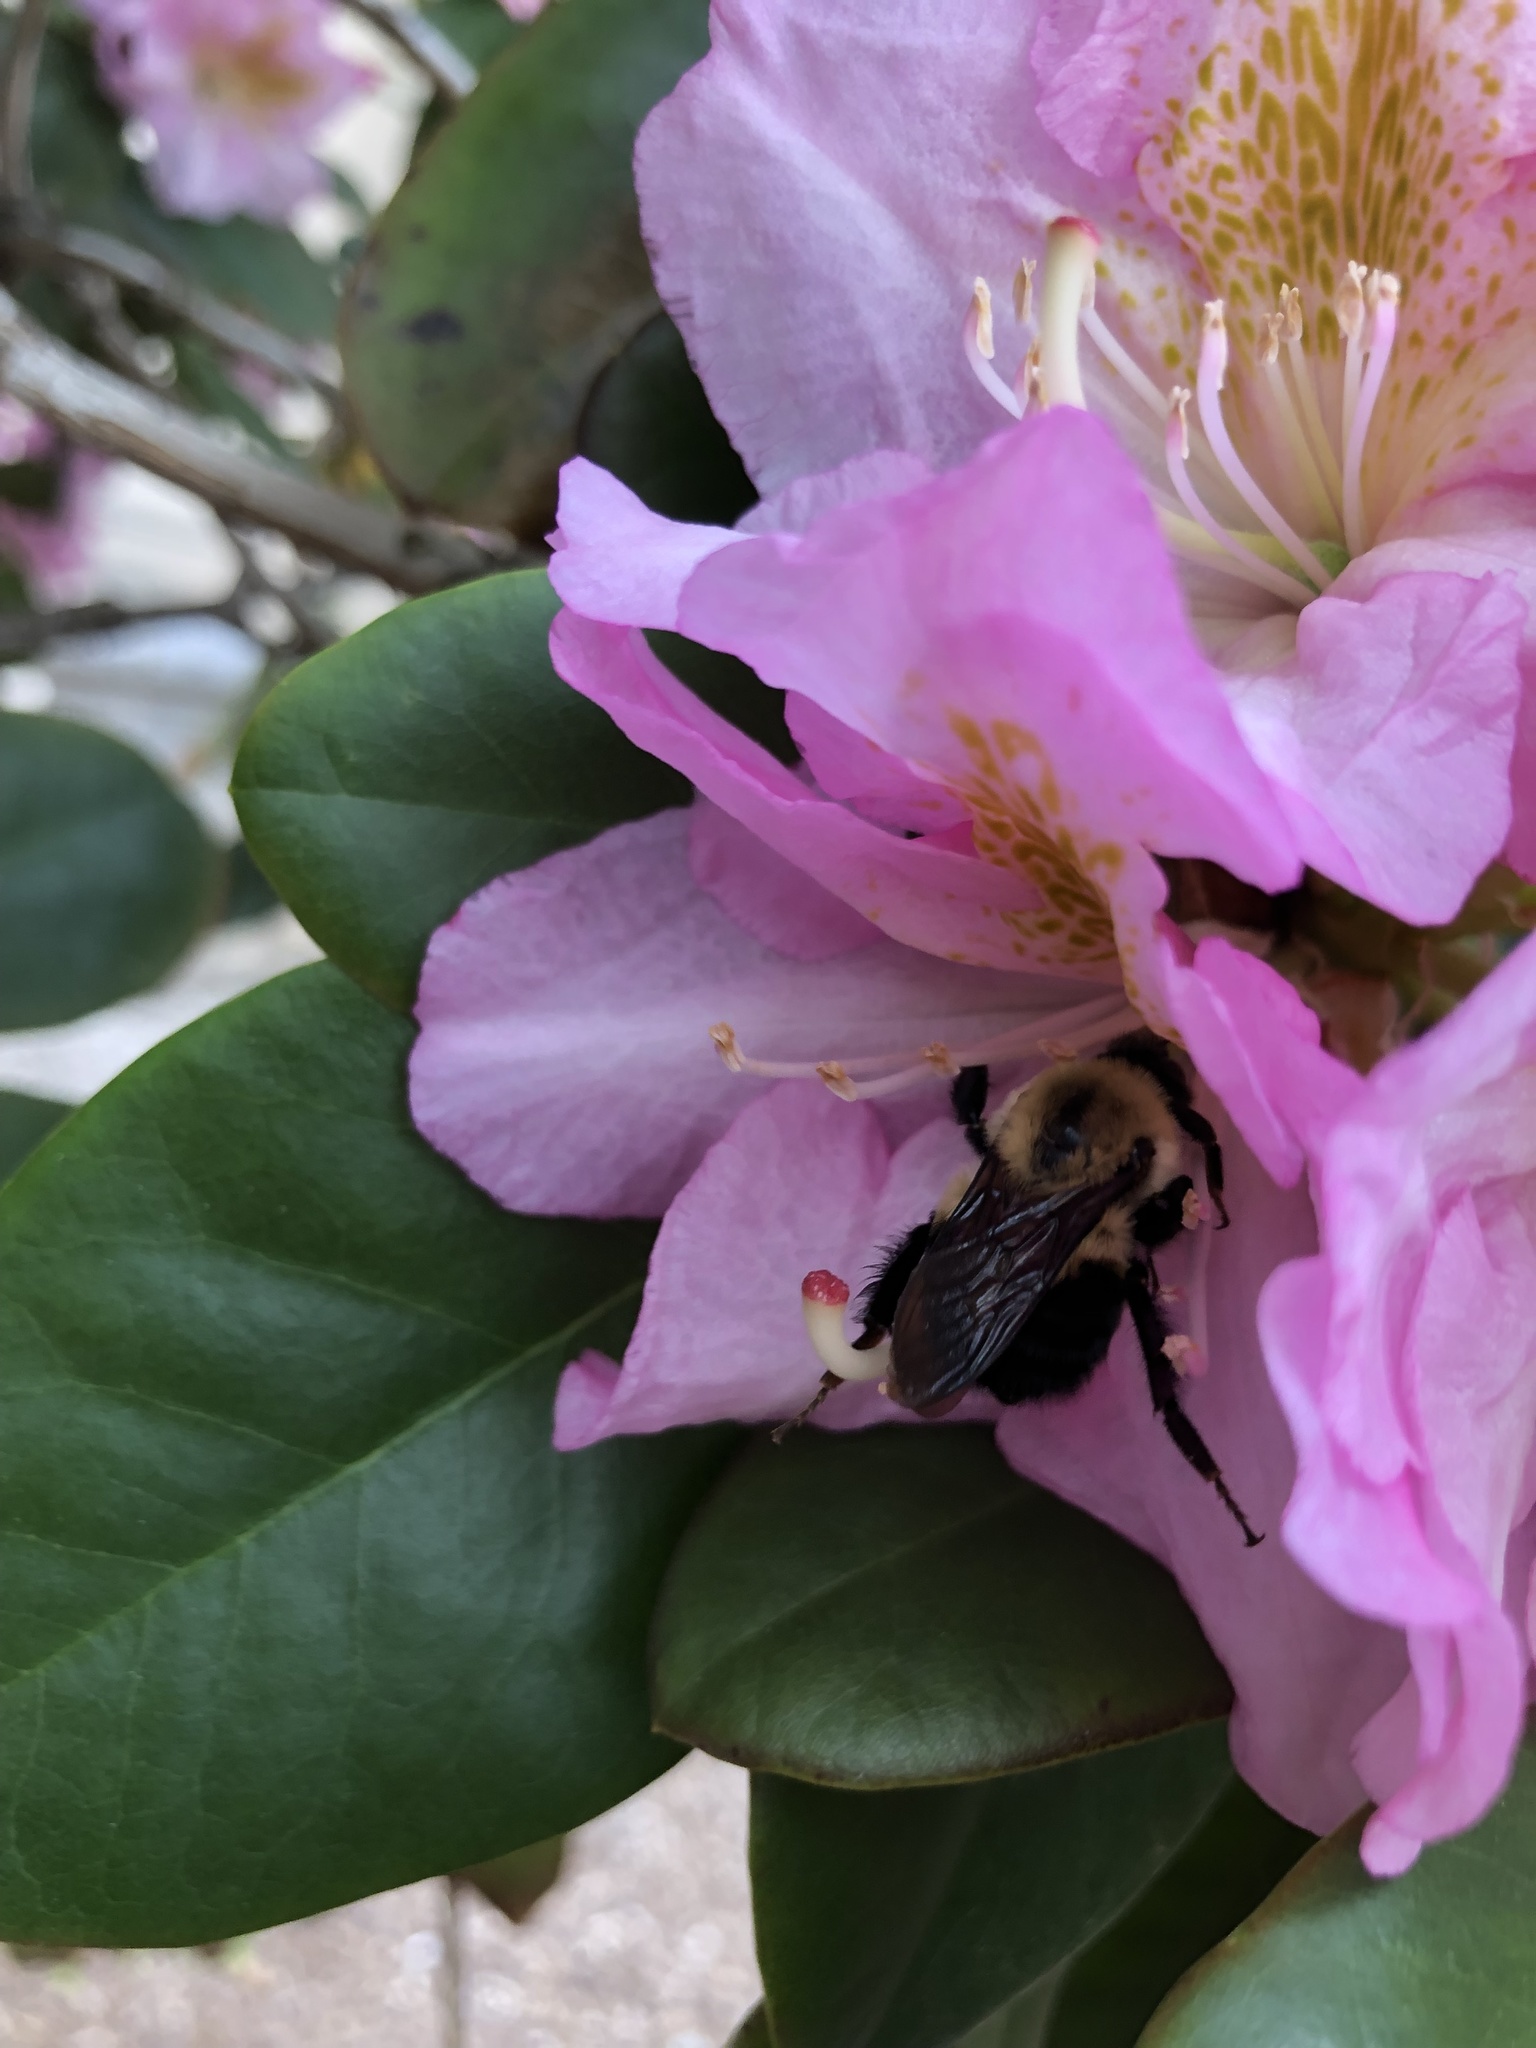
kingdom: Animalia
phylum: Arthropoda
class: Insecta
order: Hymenoptera
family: Apidae
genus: Bombus
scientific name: Bombus
